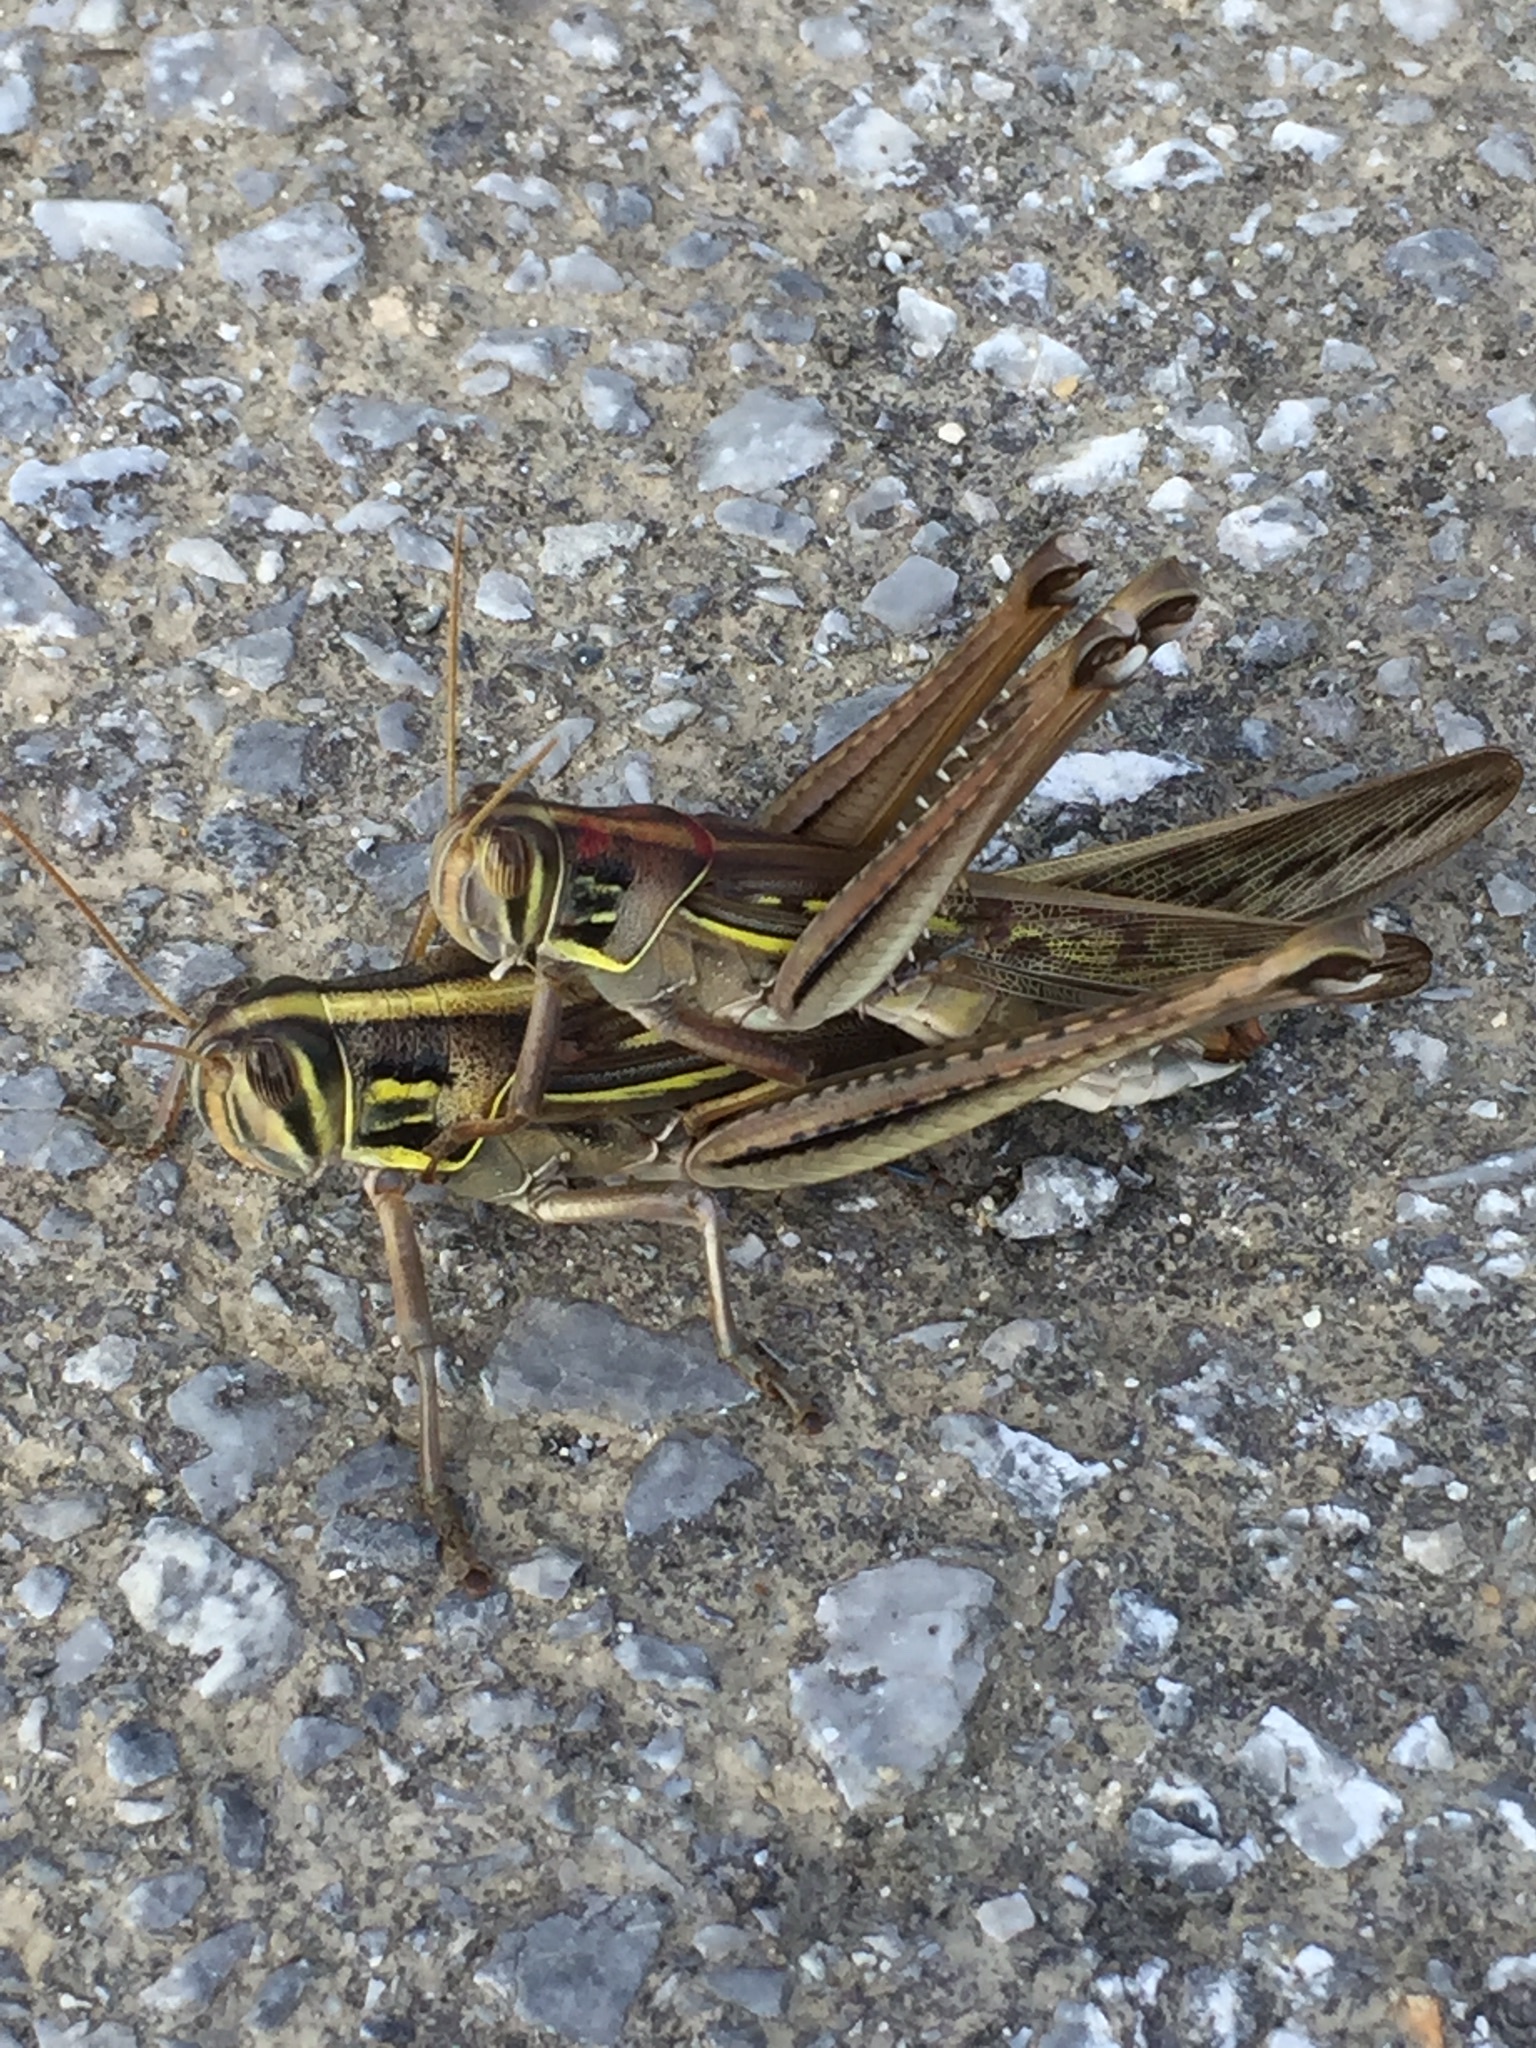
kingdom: Animalia
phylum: Arthropoda
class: Insecta
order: Orthoptera
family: Acrididae
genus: Patanga
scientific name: Patanga succincta
